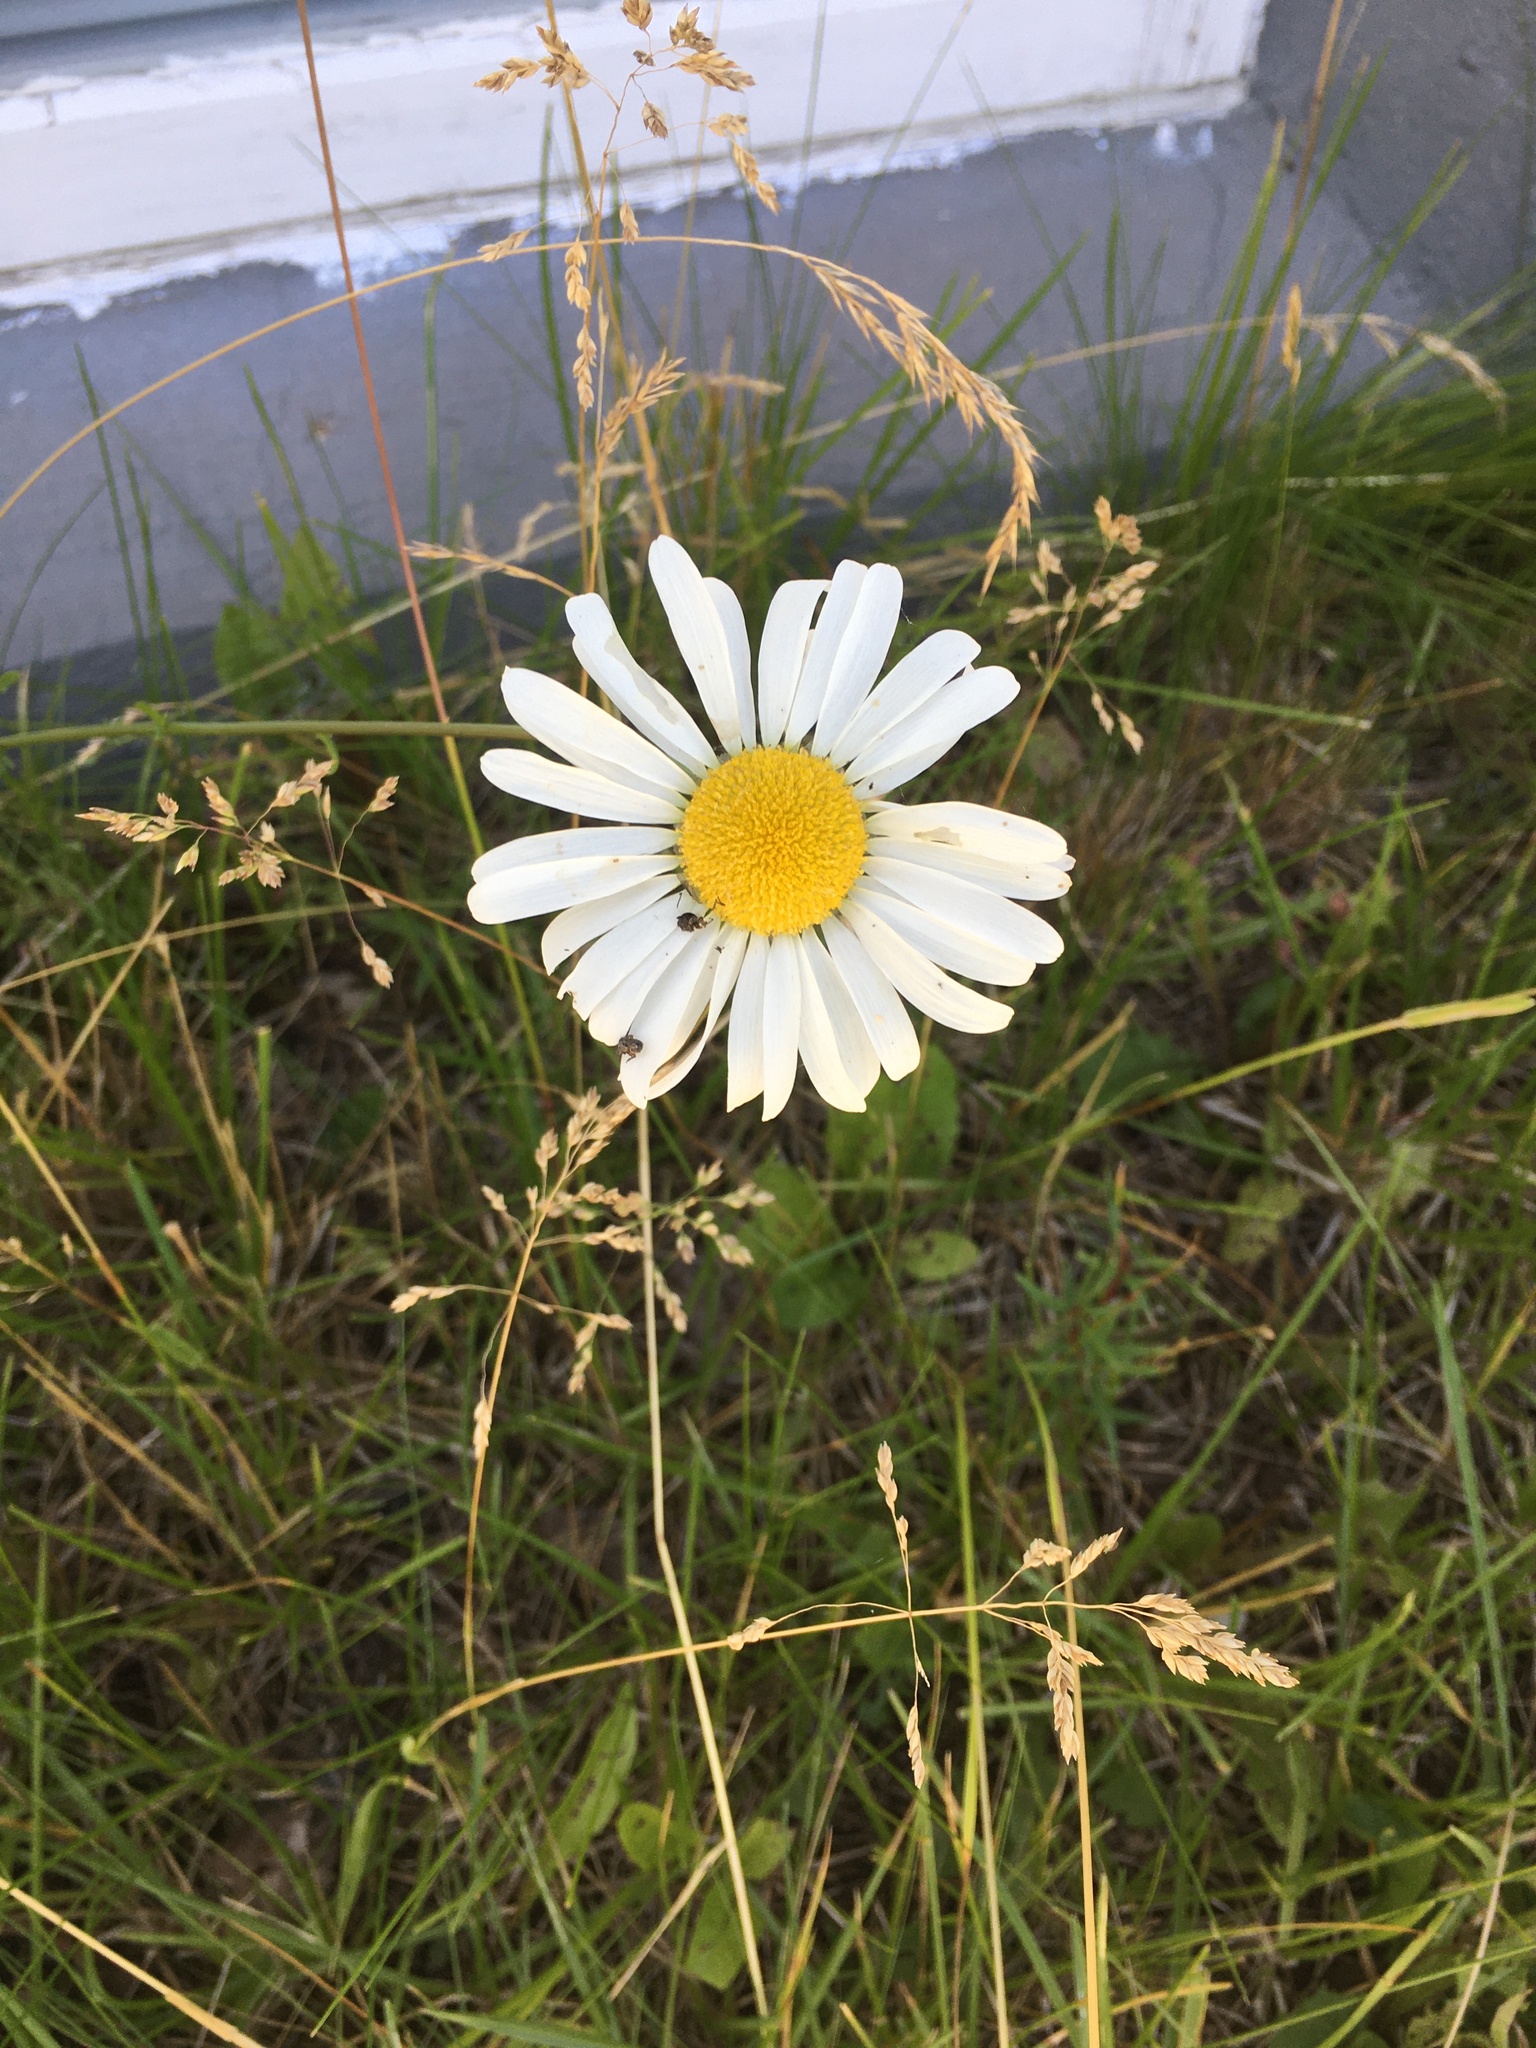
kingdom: Plantae
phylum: Tracheophyta
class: Magnoliopsida
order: Asterales
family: Asteraceae
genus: Leucanthemum
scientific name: Leucanthemum vulgare
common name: Oxeye daisy
